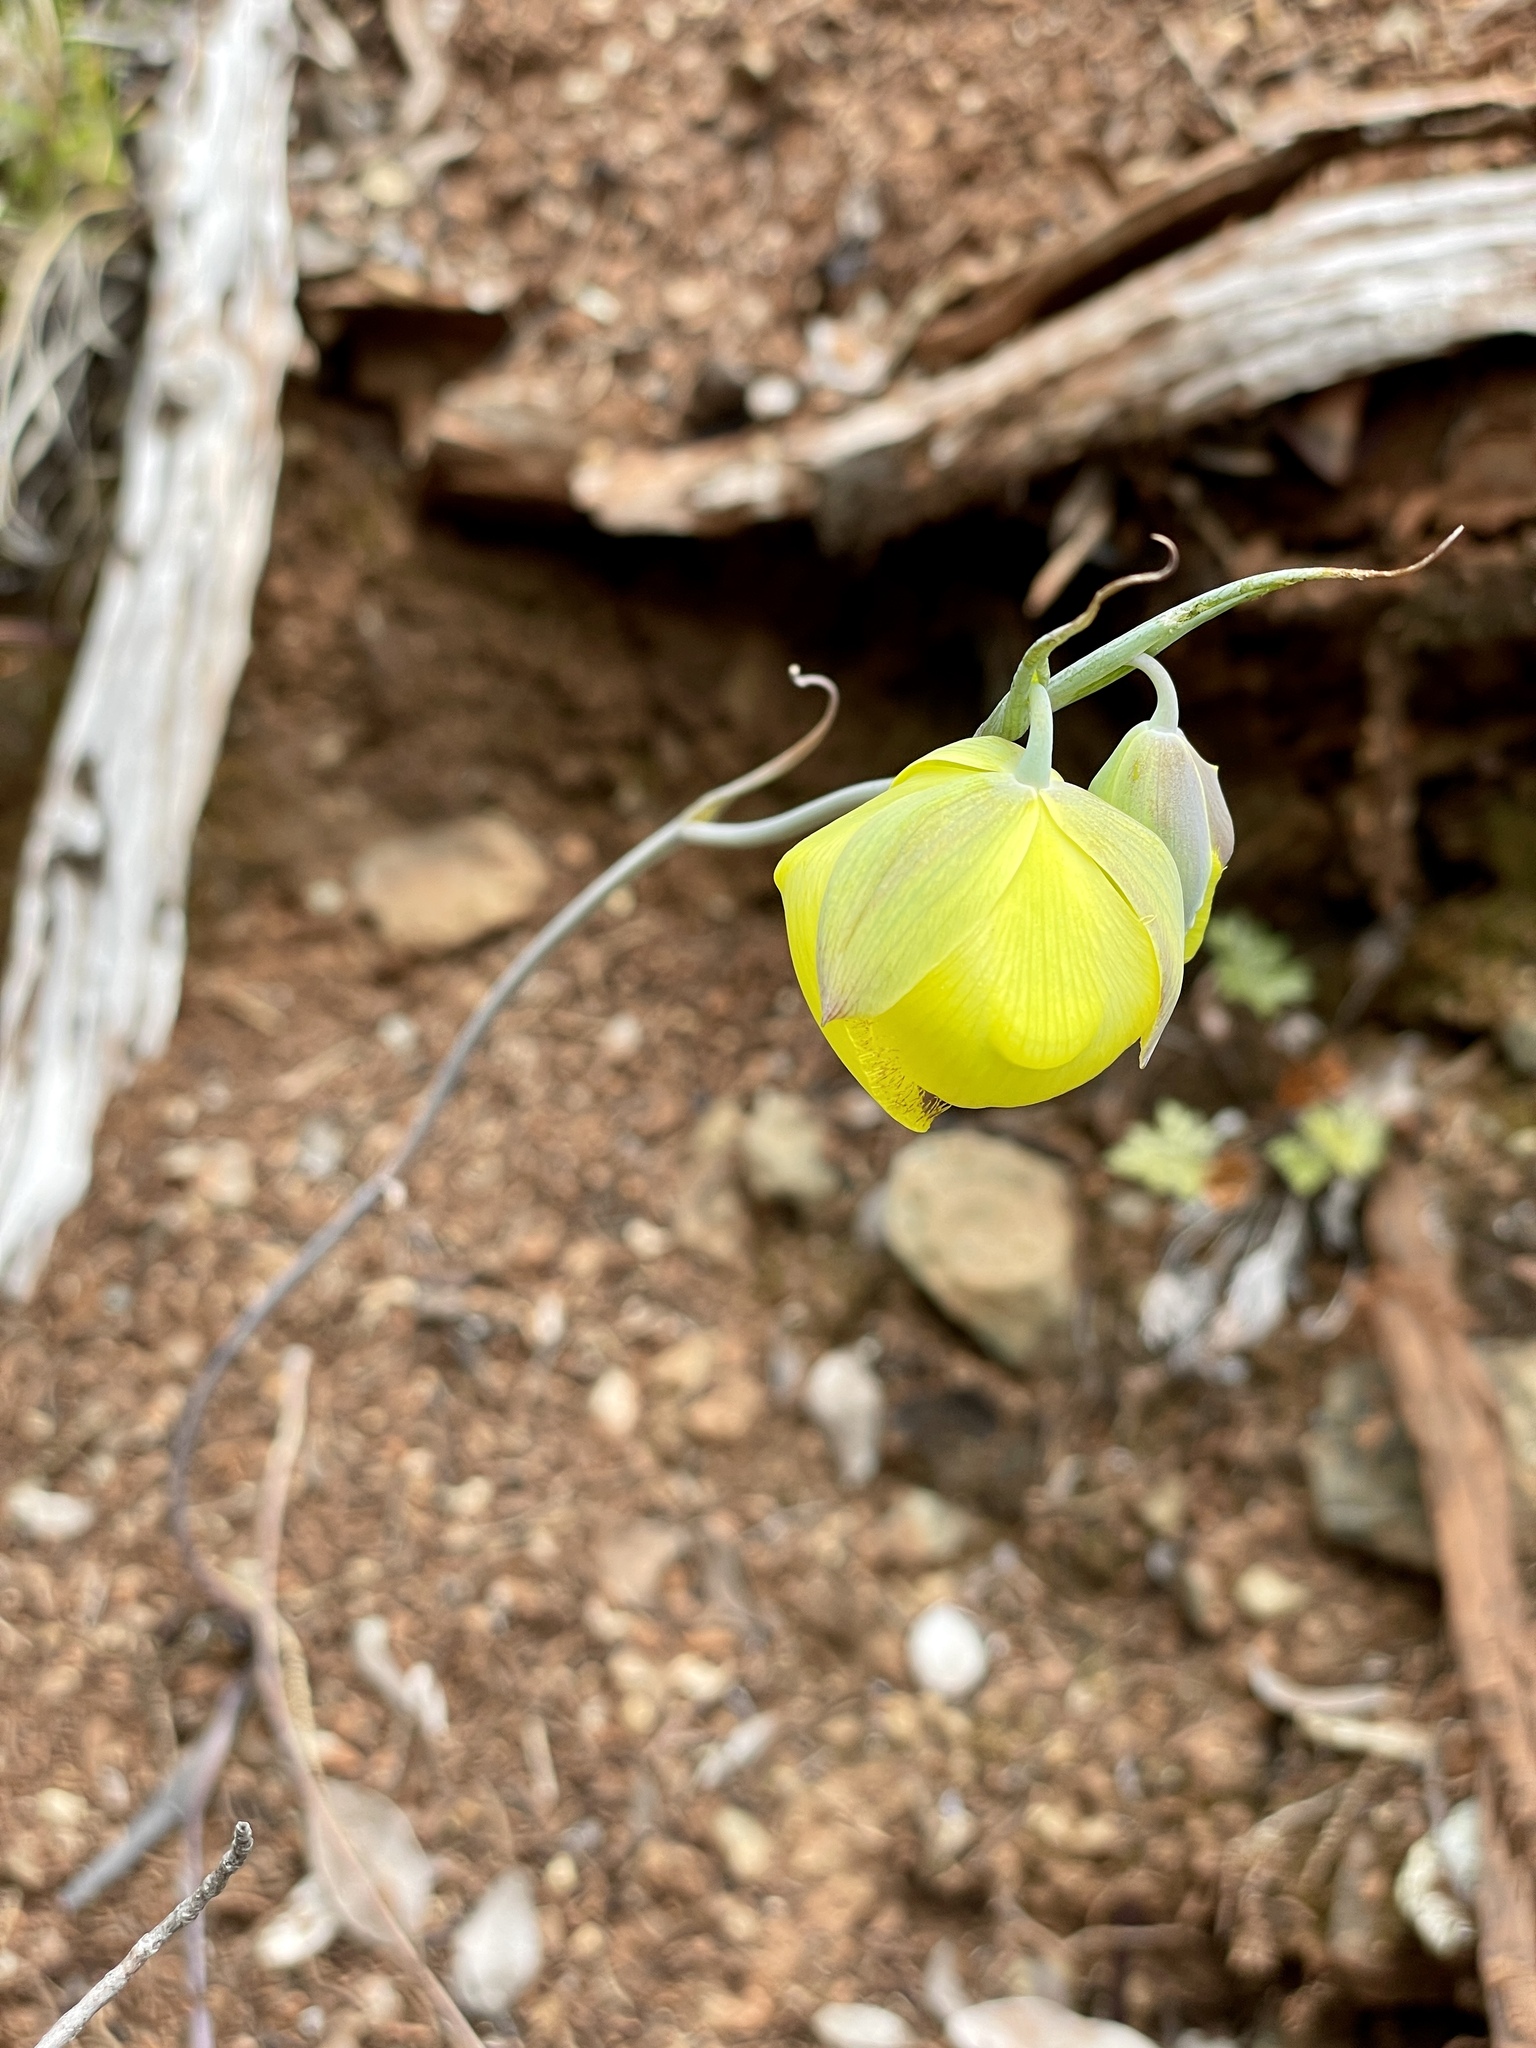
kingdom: Plantae
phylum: Tracheophyta
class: Liliopsida
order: Liliales
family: Liliaceae
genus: Calochortus
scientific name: Calochortus raichei
